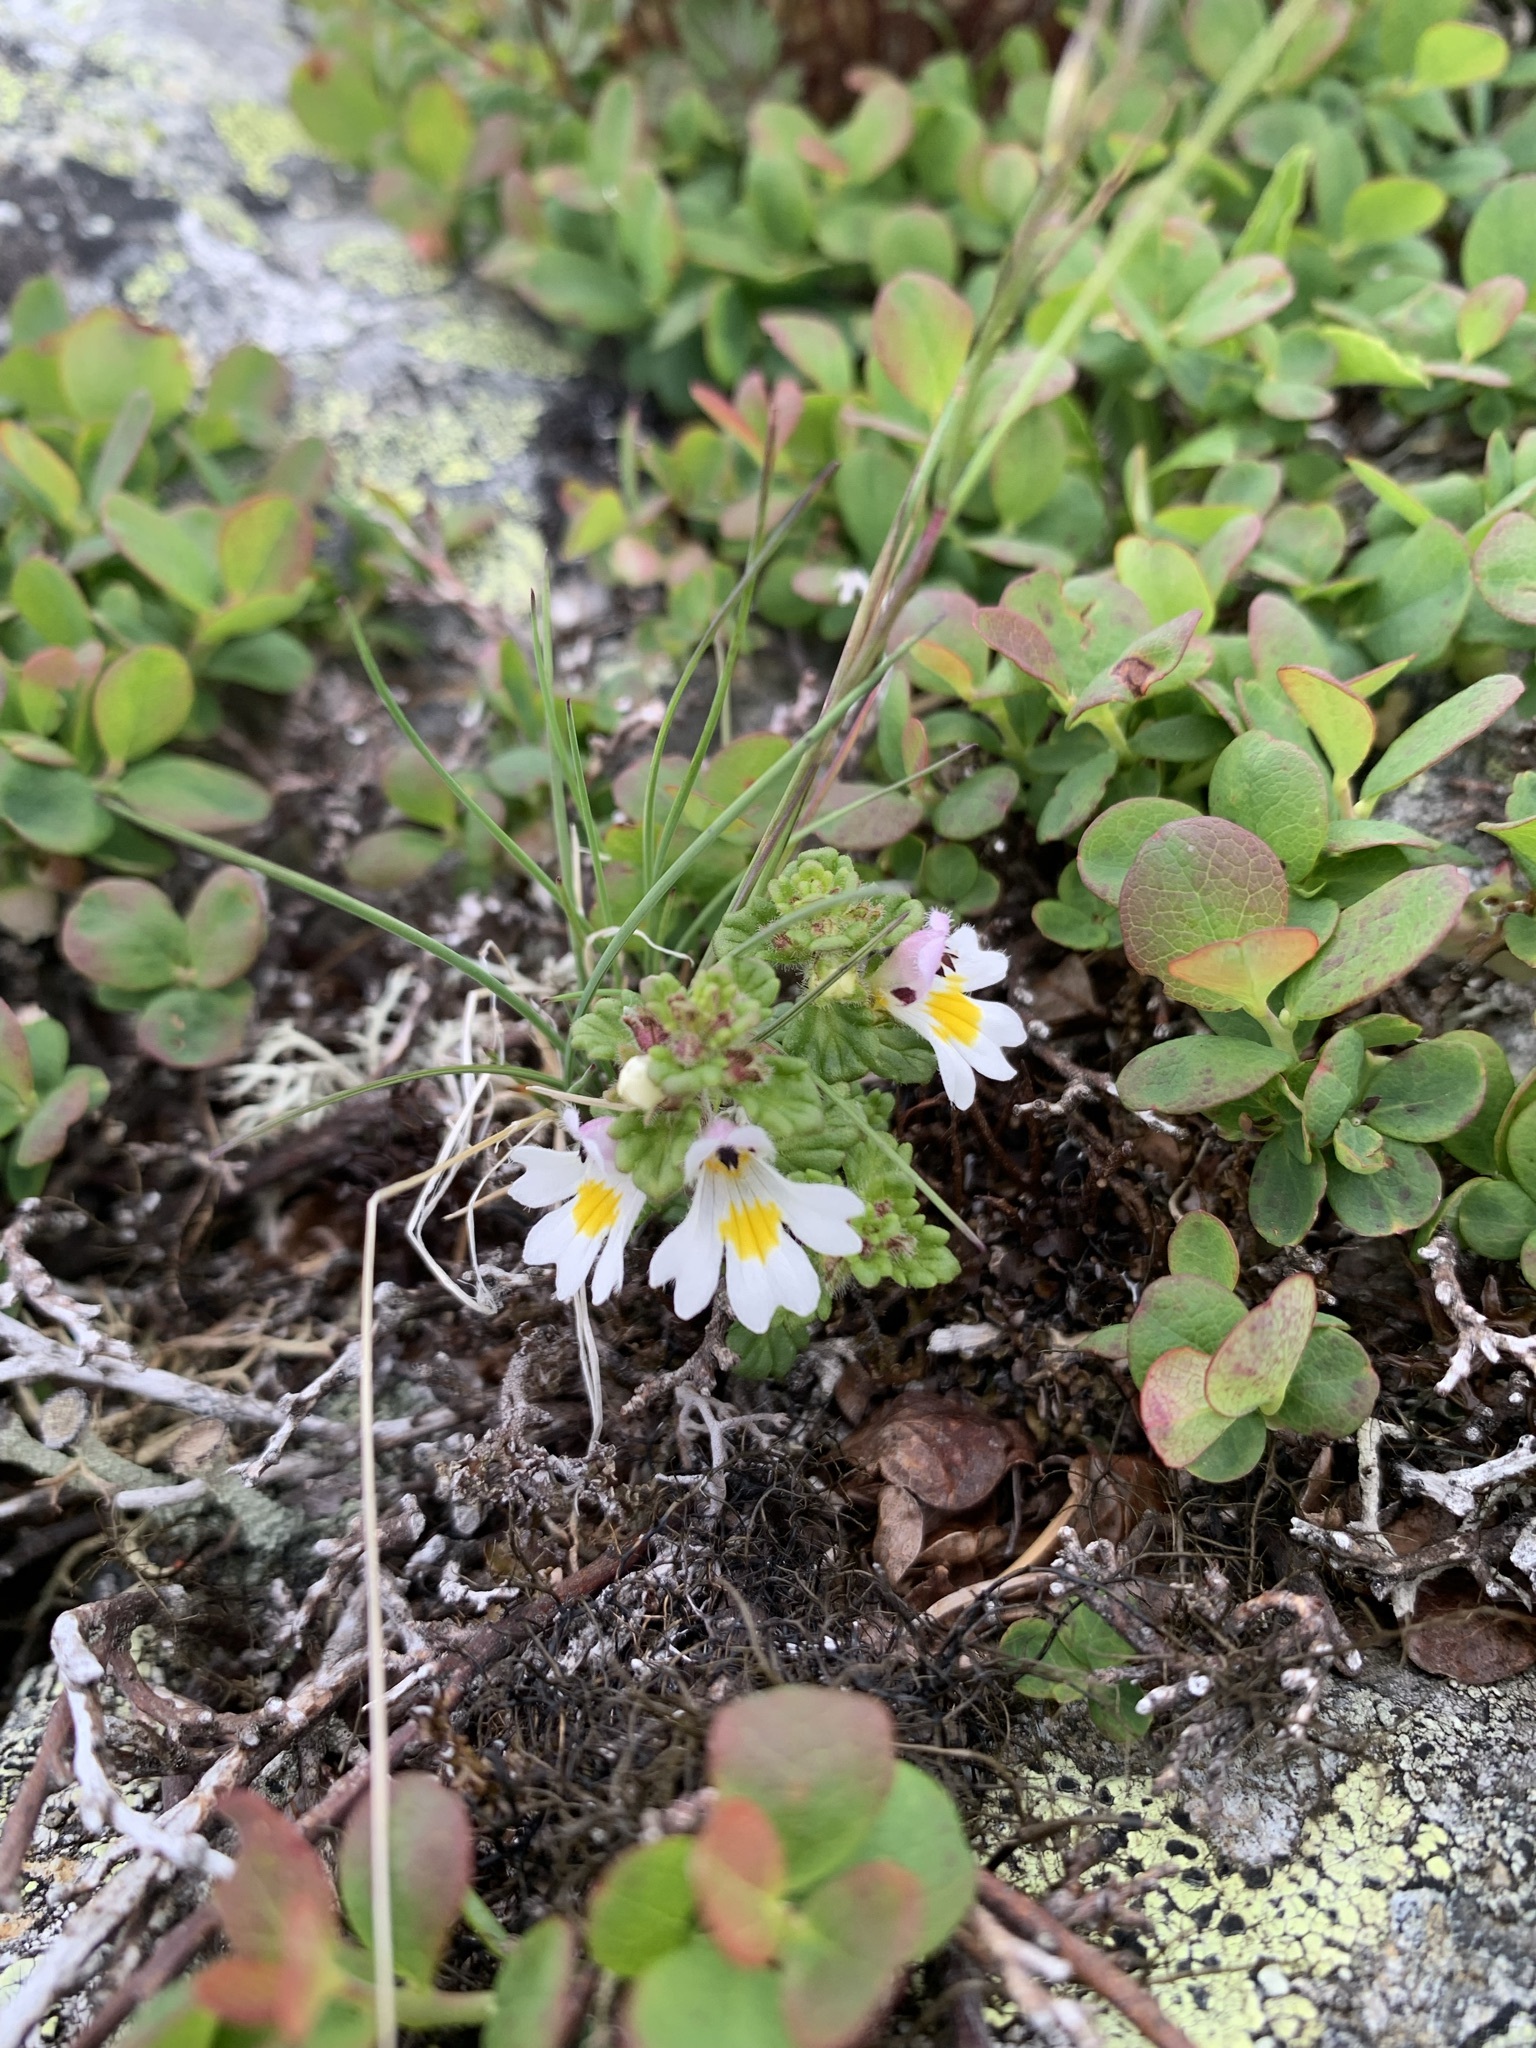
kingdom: Plantae
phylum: Tracheophyta
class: Magnoliopsida
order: Lamiales
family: Orobanchaceae
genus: Euphrasia
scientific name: Euphrasia matsumurae
